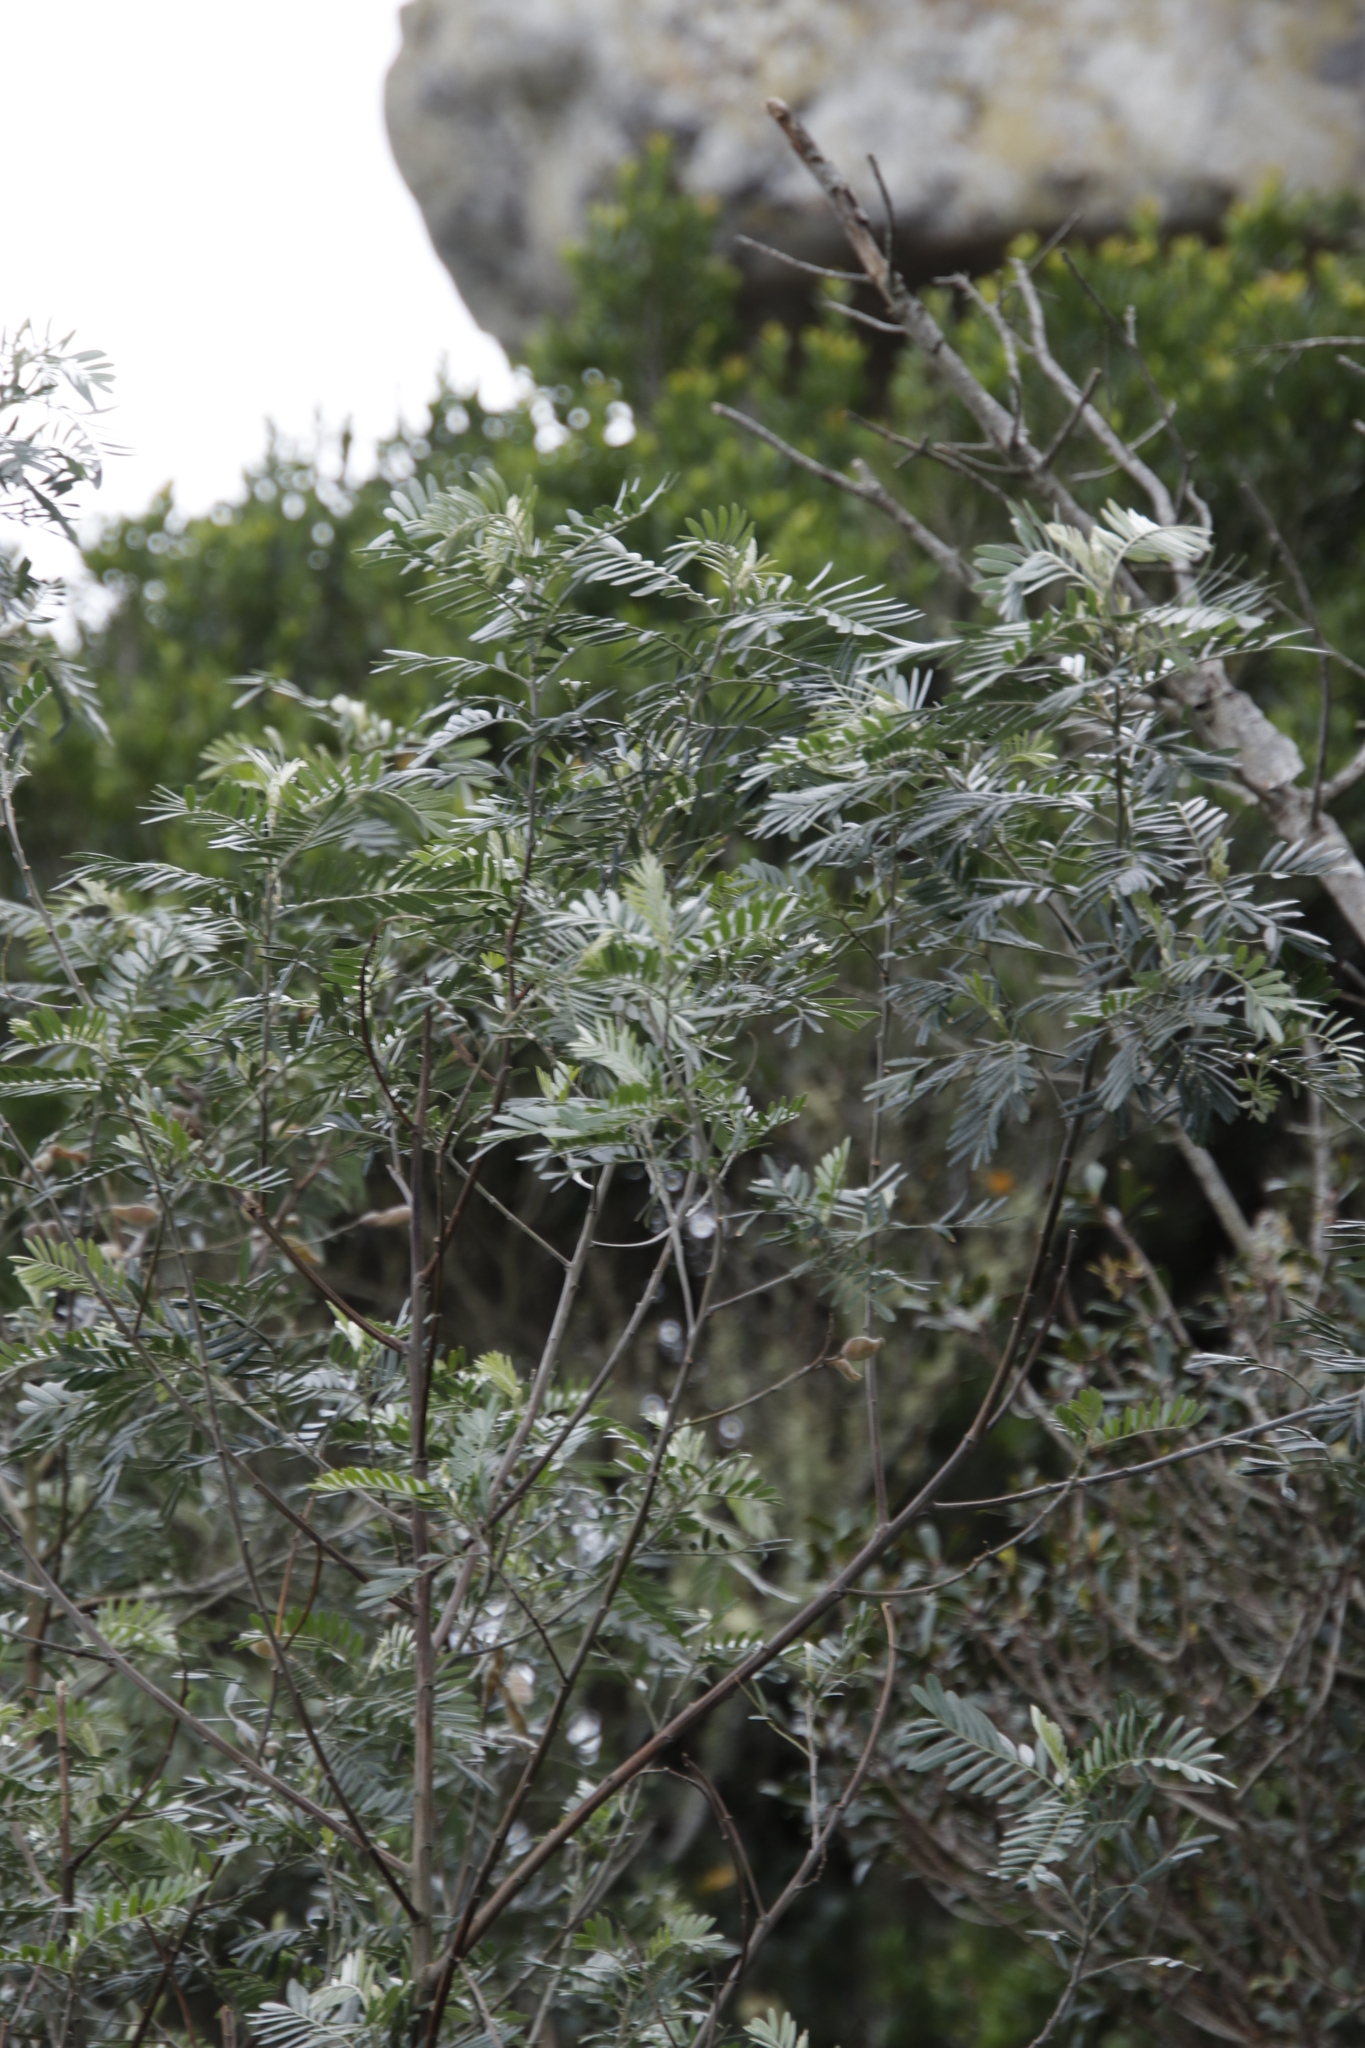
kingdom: Plantae
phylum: Tracheophyta
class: Magnoliopsida
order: Fabales
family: Fabaceae
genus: Virgilia
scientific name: Virgilia oroboides
